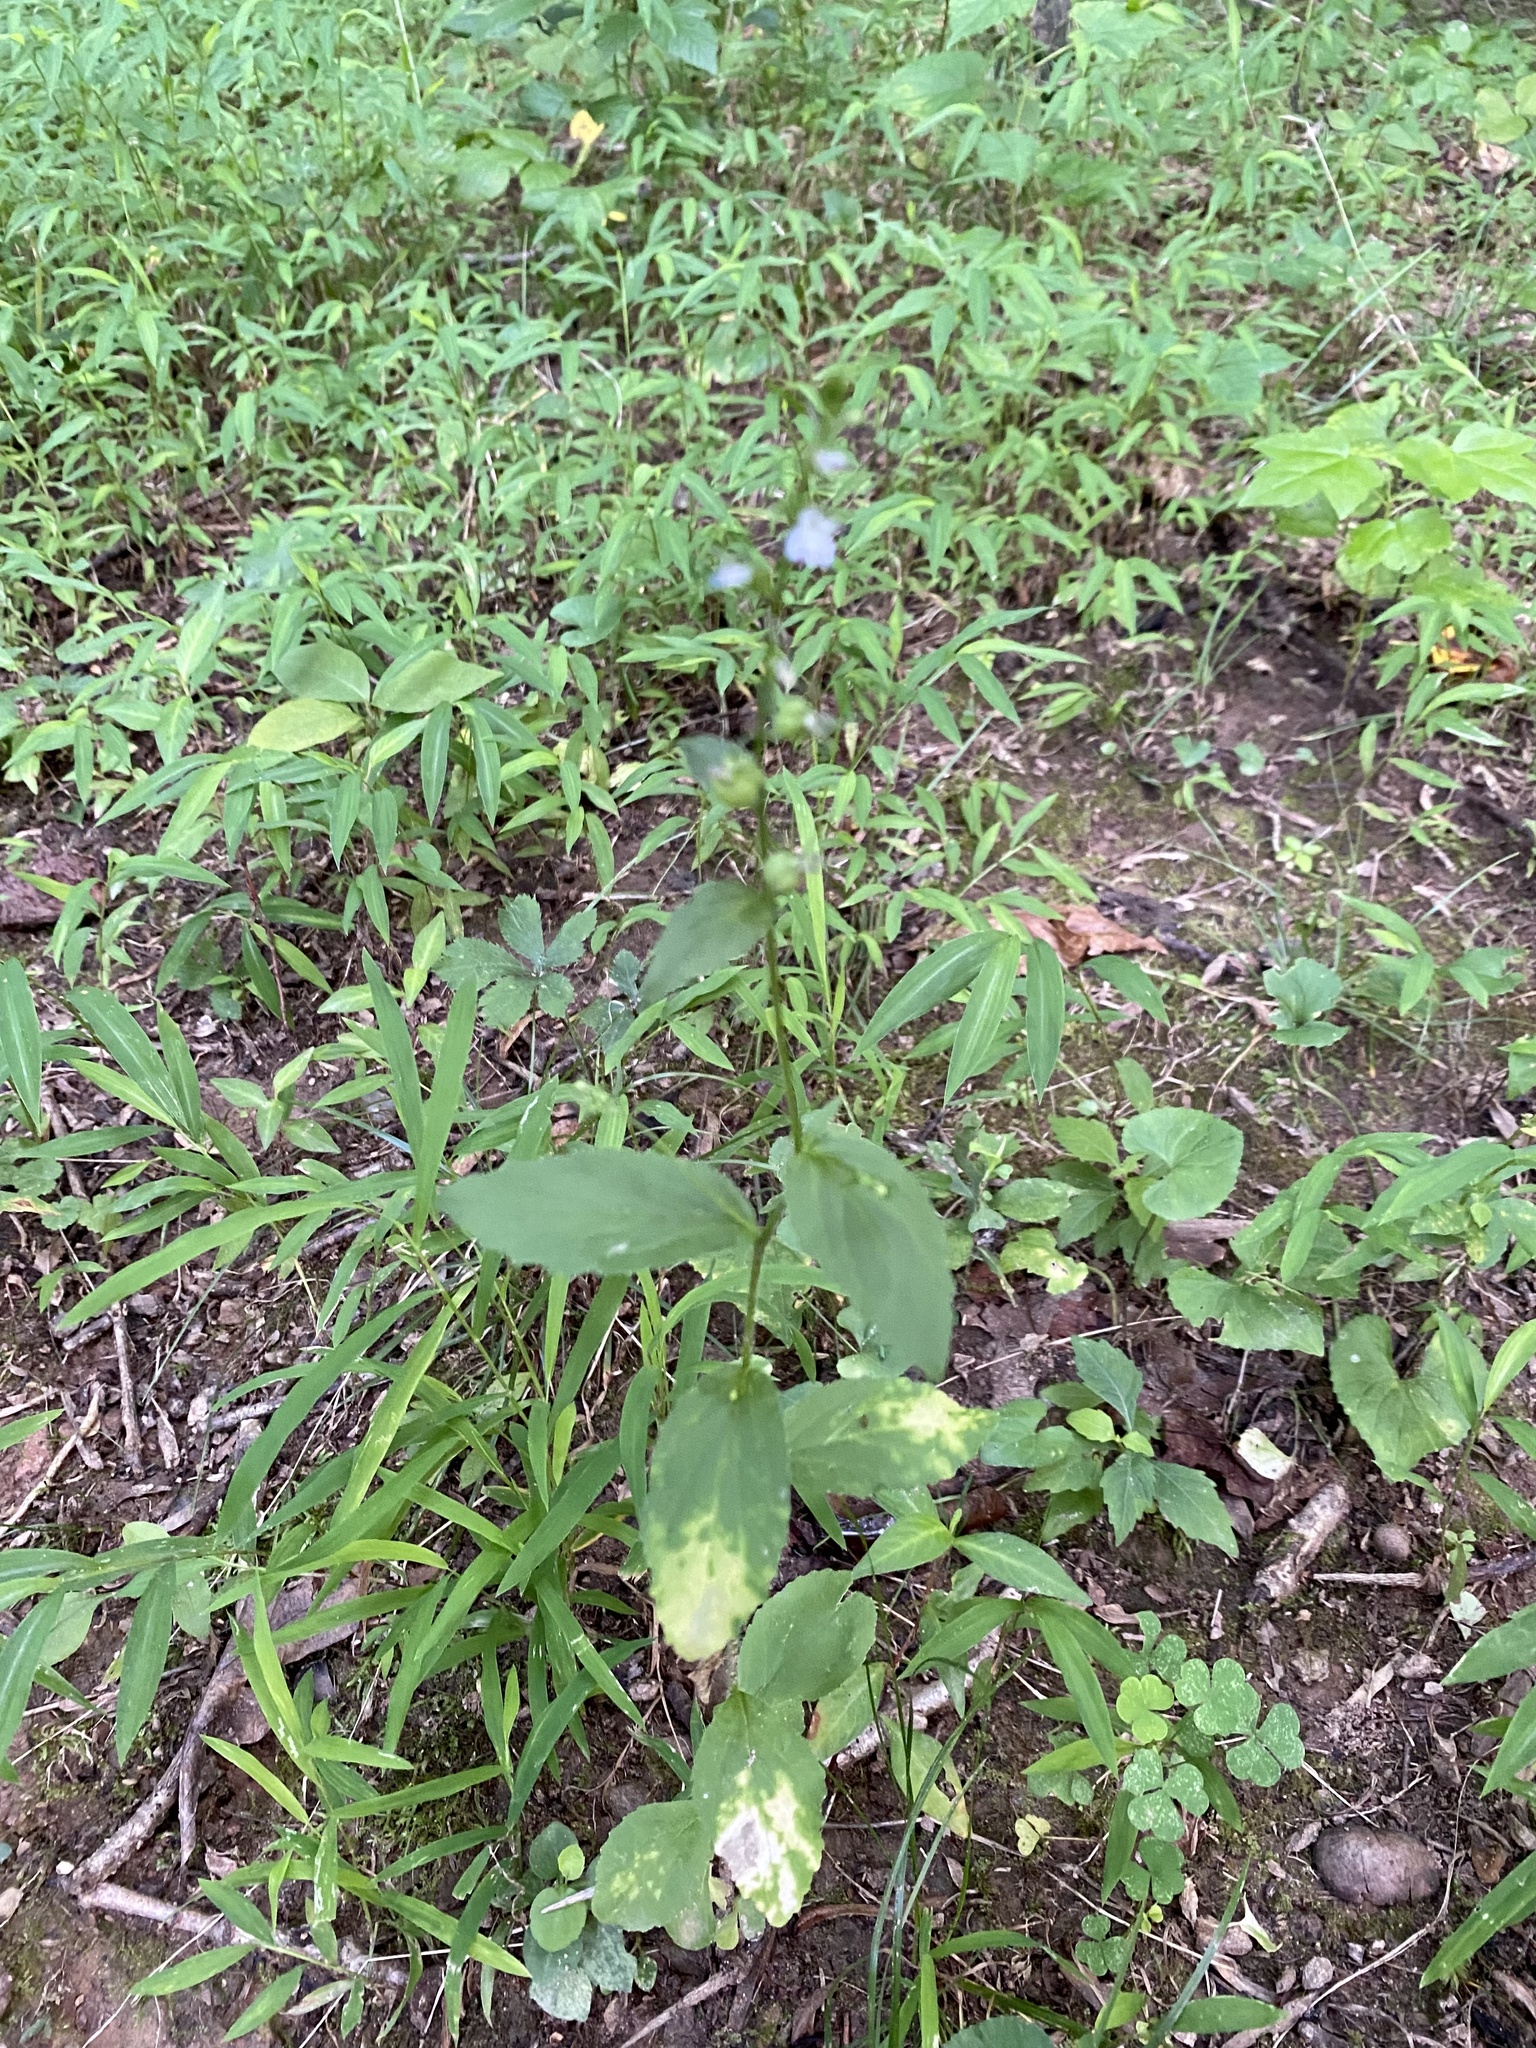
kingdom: Plantae
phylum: Tracheophyta
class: Magnoliopsida
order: Asterales
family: Campanulaceae
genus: Lobelia
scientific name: Lobelia inflata
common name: Indian tobacco
